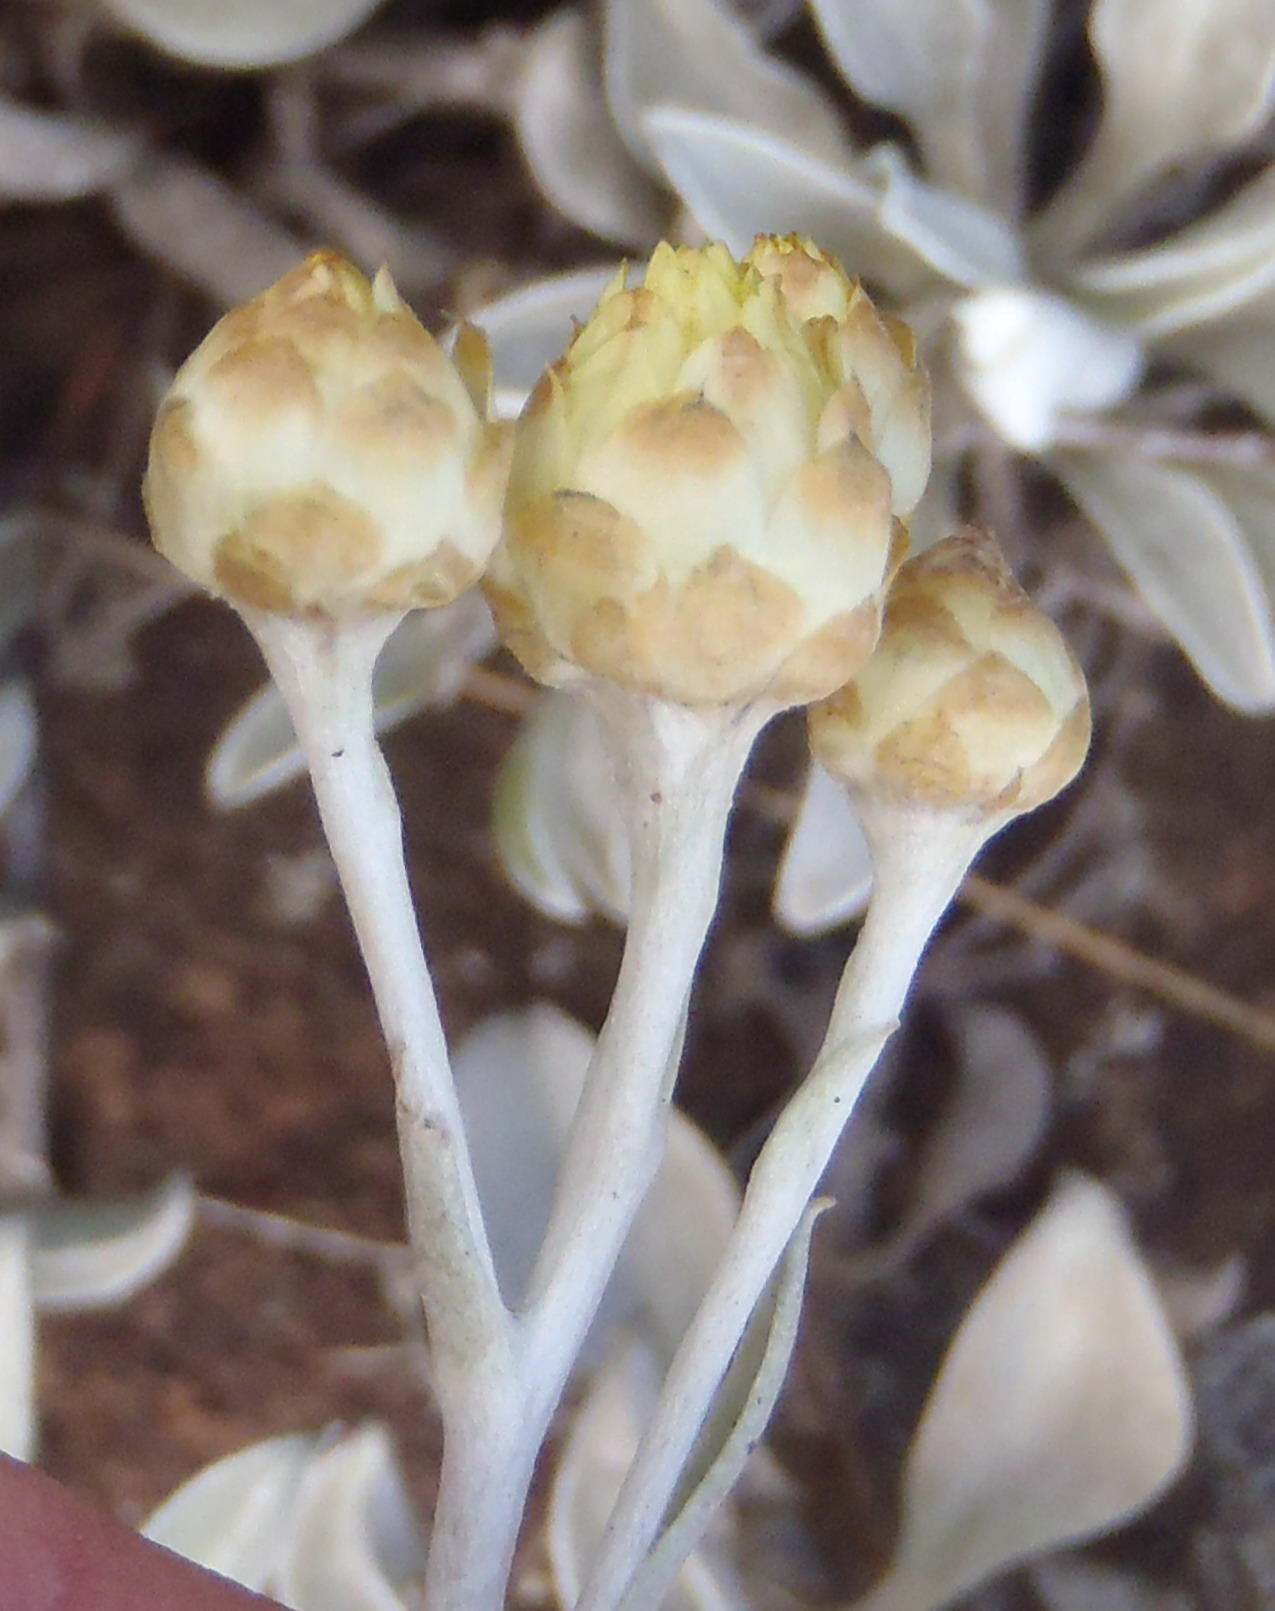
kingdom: Plantae
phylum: Tracheophyta
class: Magnoliopsida
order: Asterales
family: Asteraceae
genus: Helichrysum
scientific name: Helichrysum argyrophyllum
